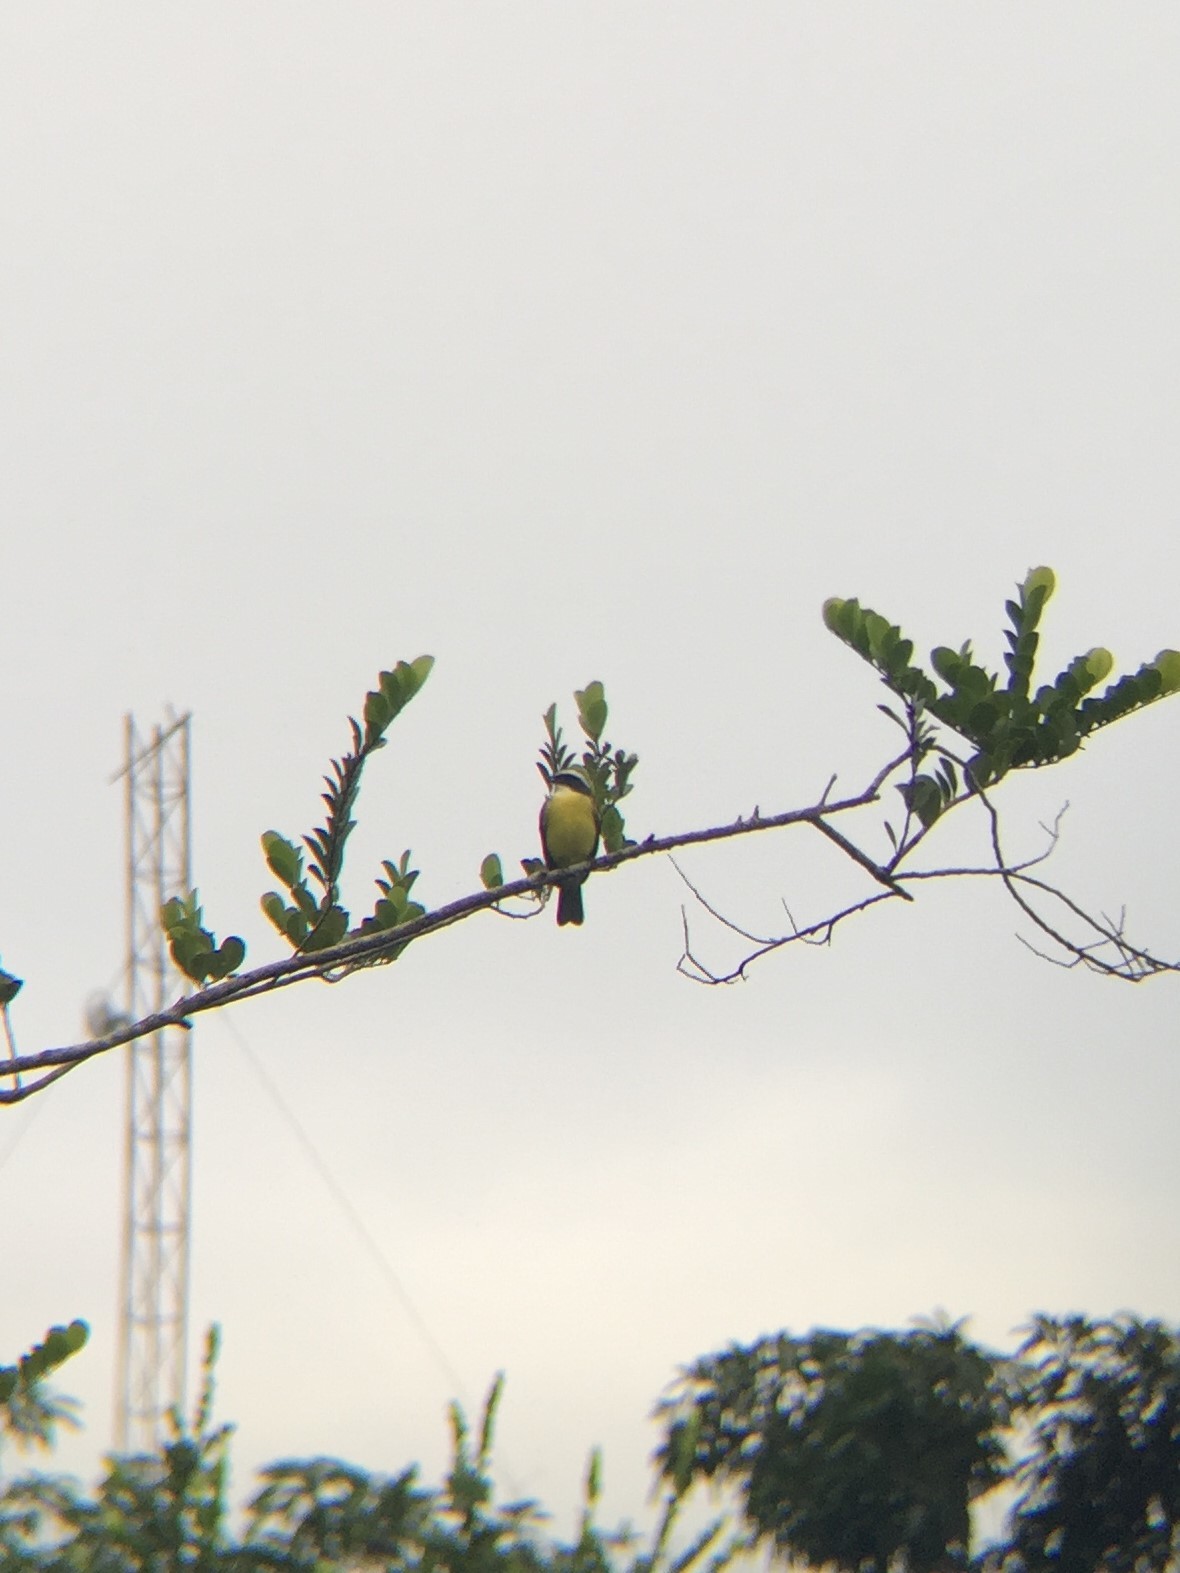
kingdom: Animalia
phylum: Chordata
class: Aves
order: Passeriformes
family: Tyrannidae
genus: Myiozetetes
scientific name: Myiozetetes similis
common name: Social flycatcher
